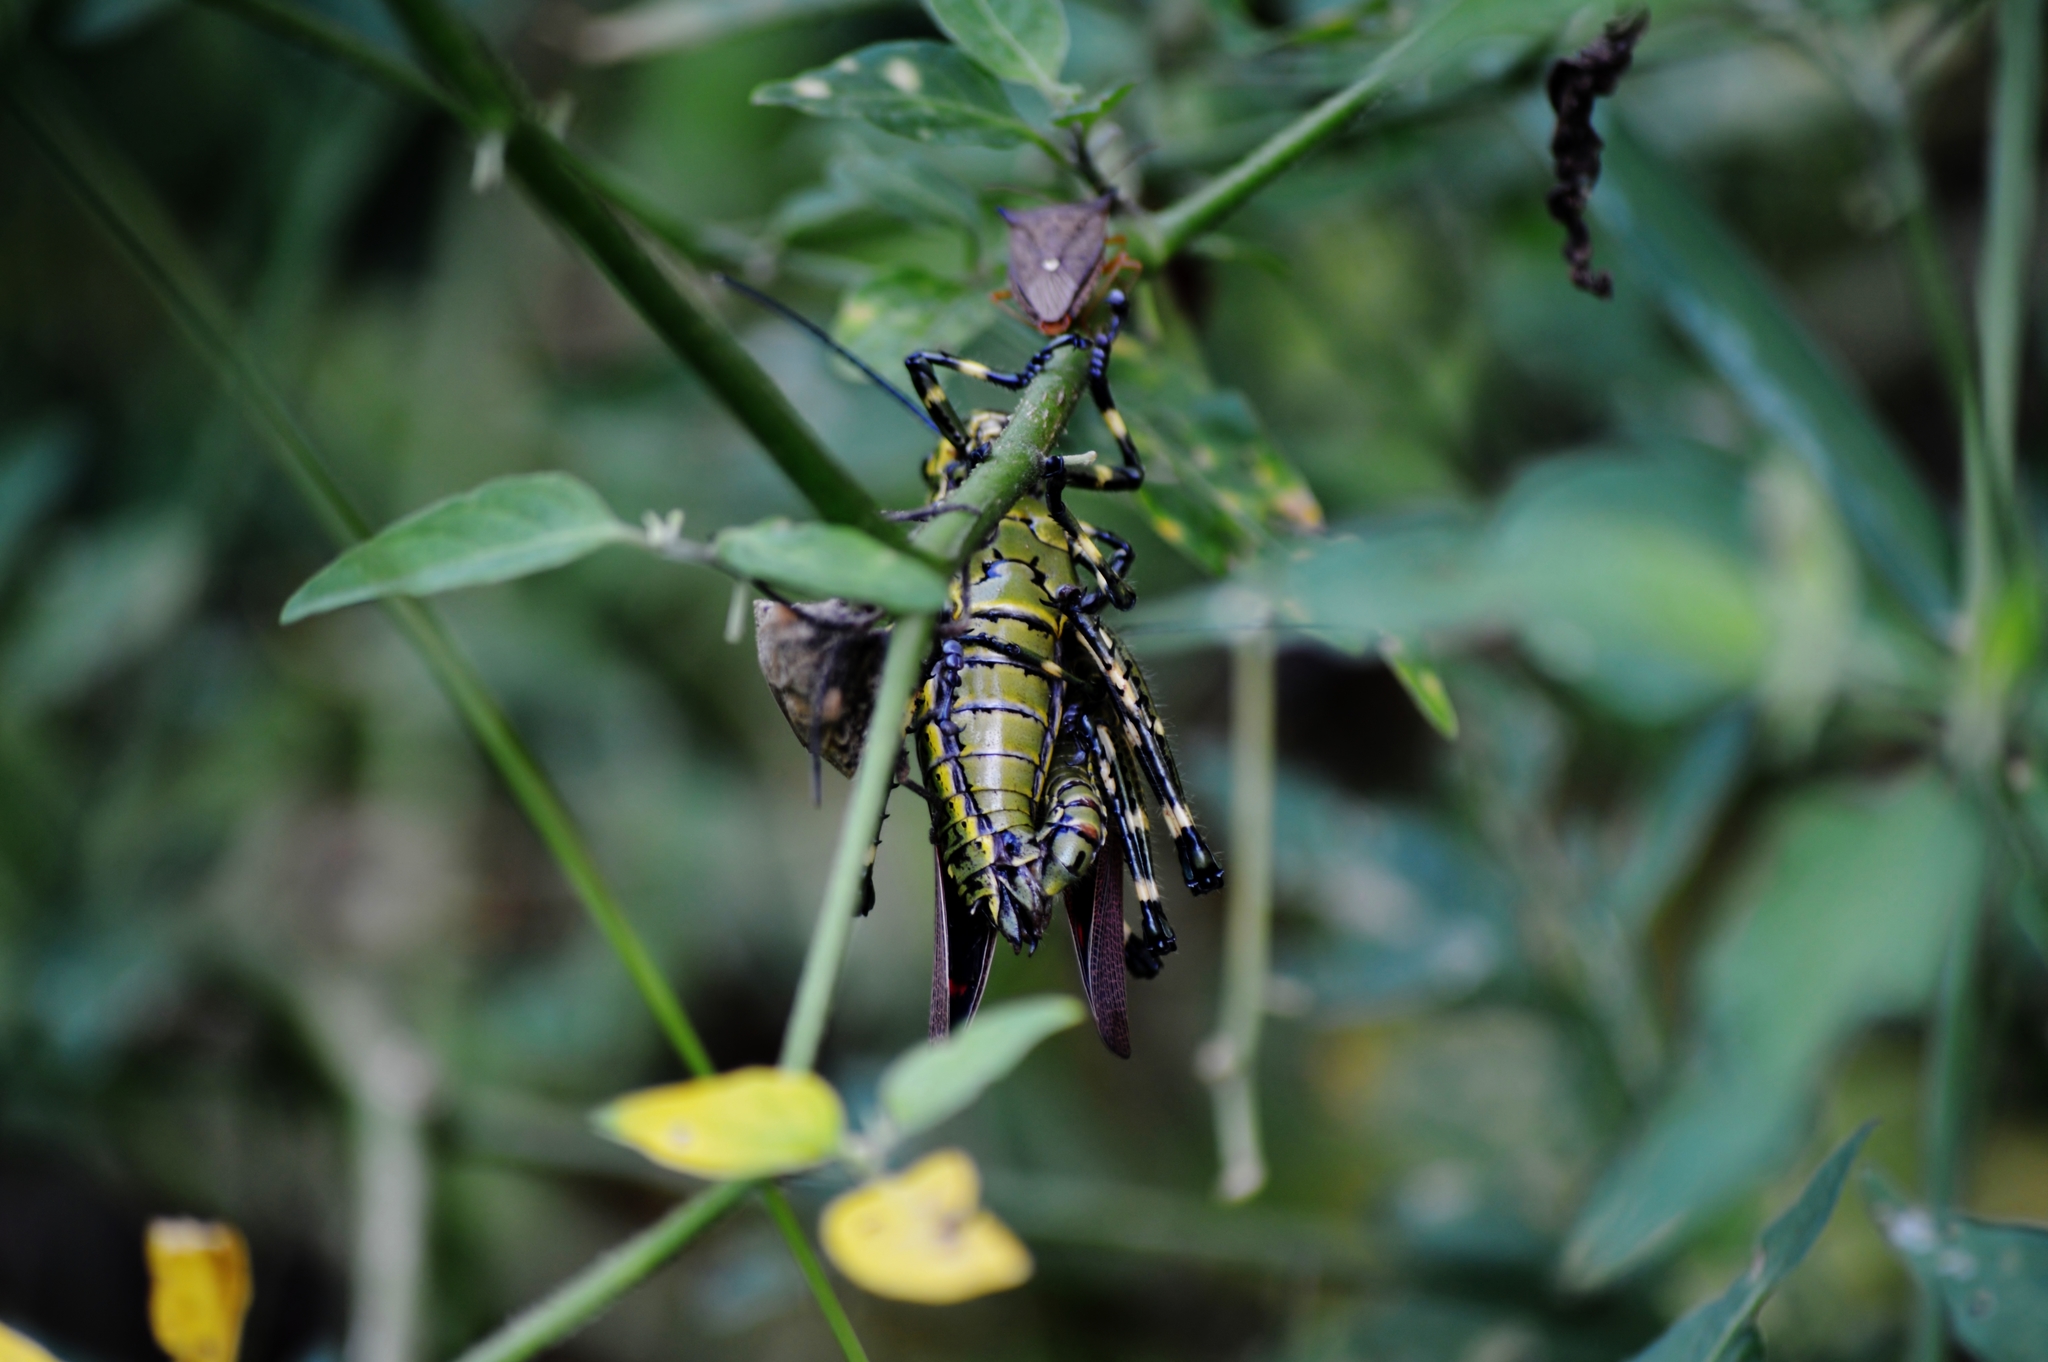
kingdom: Animalia
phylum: Arthropoda
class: Insecta
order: Orthoptera
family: Romaleidae
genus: Chromacris
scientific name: Chromacris speciosa
